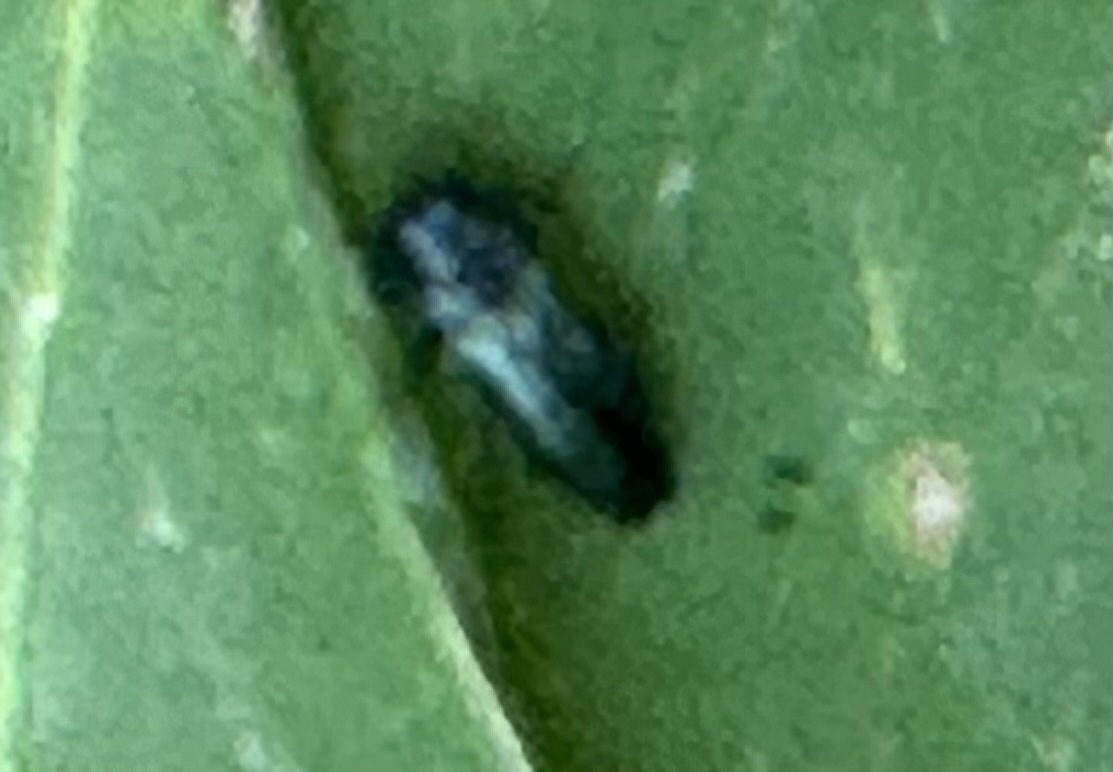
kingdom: Animalia
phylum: Arthropoda
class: Insecta
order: Coleoptera
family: Buprestidae
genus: Agrilus
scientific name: Agrilus cyanescens
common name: Bluish borer beetle
